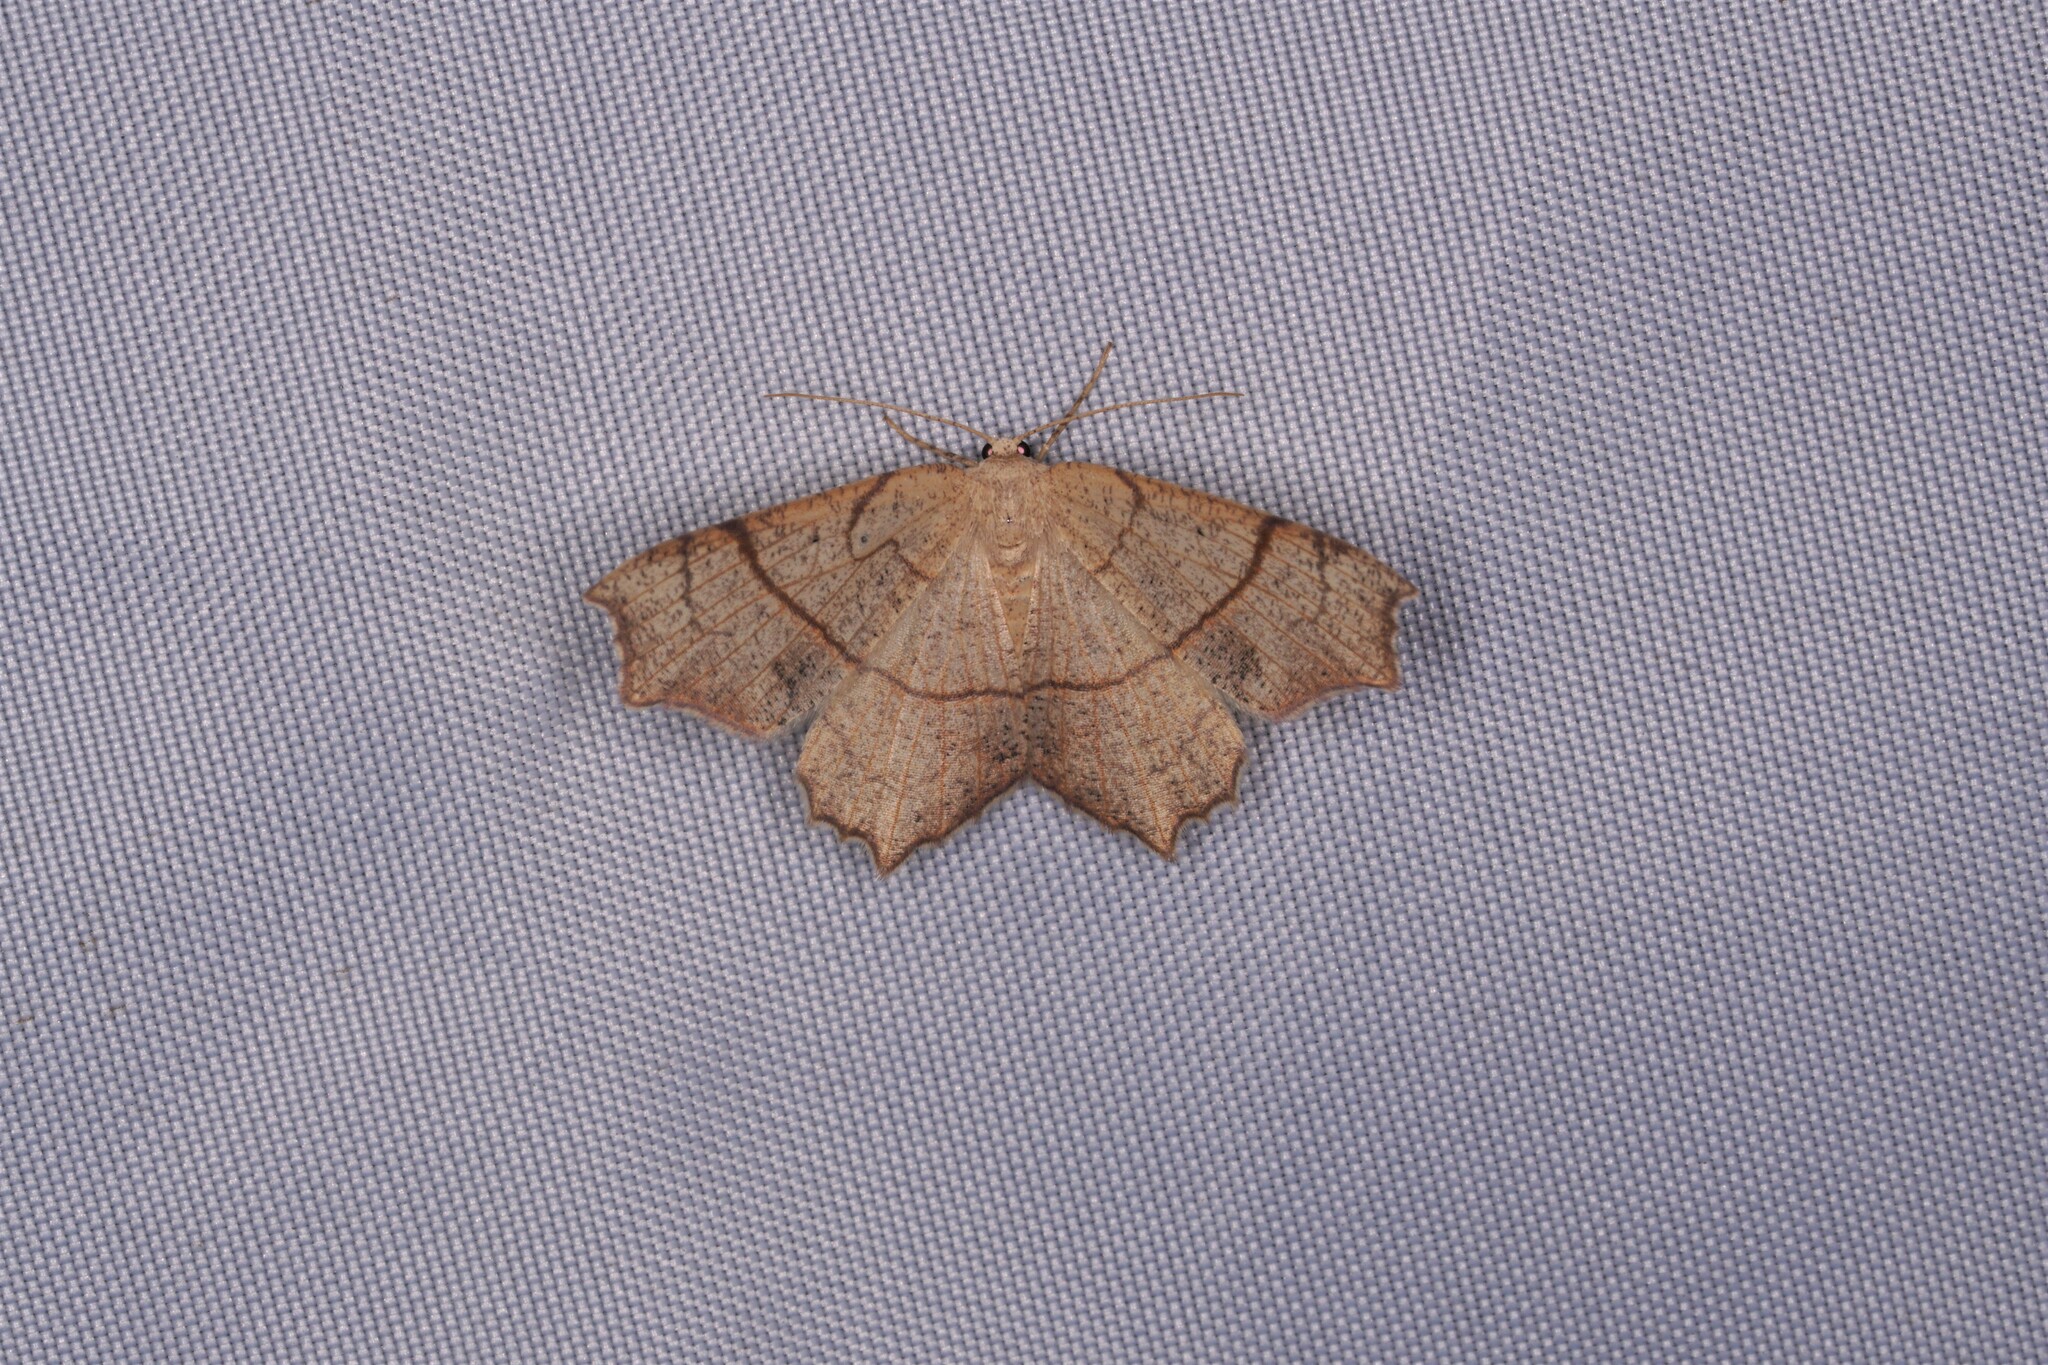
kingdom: Animalia
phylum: Arthropoda
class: Insecta
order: Lepidoptera
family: Geometridae
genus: Besma
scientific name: Besma quercivoraria
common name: Oak besma
